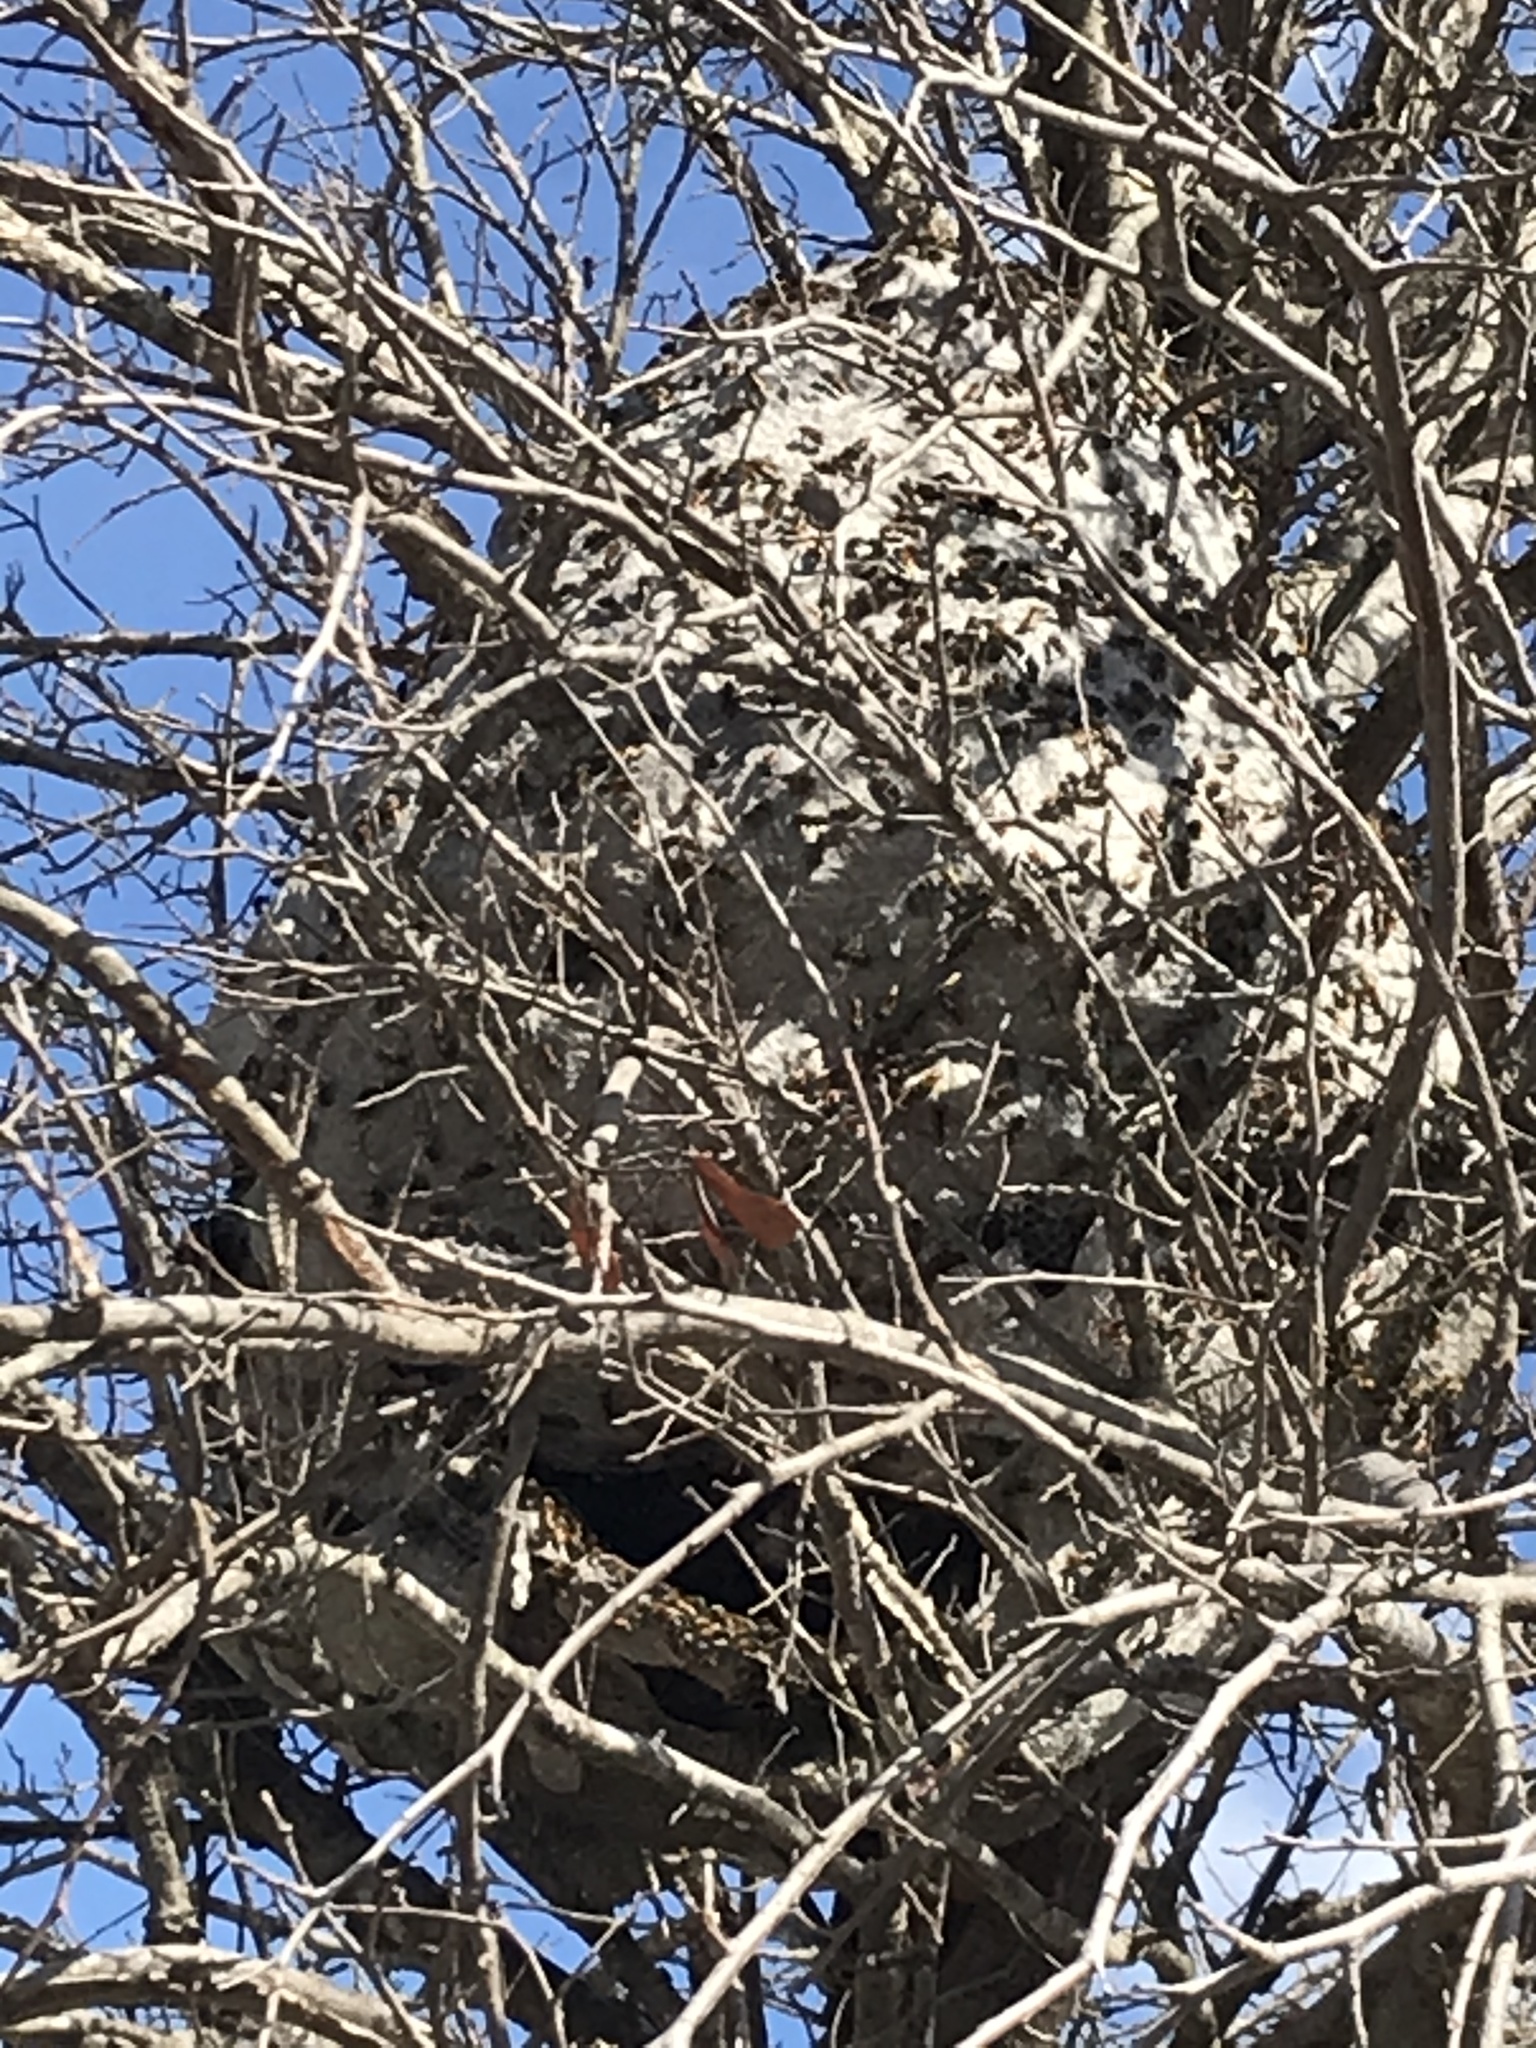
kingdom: Animalia
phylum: Arthropoda
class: Insecta
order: Hymenoptera
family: Vespidae
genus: Brachygastra
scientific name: Brachygastra mellifica
